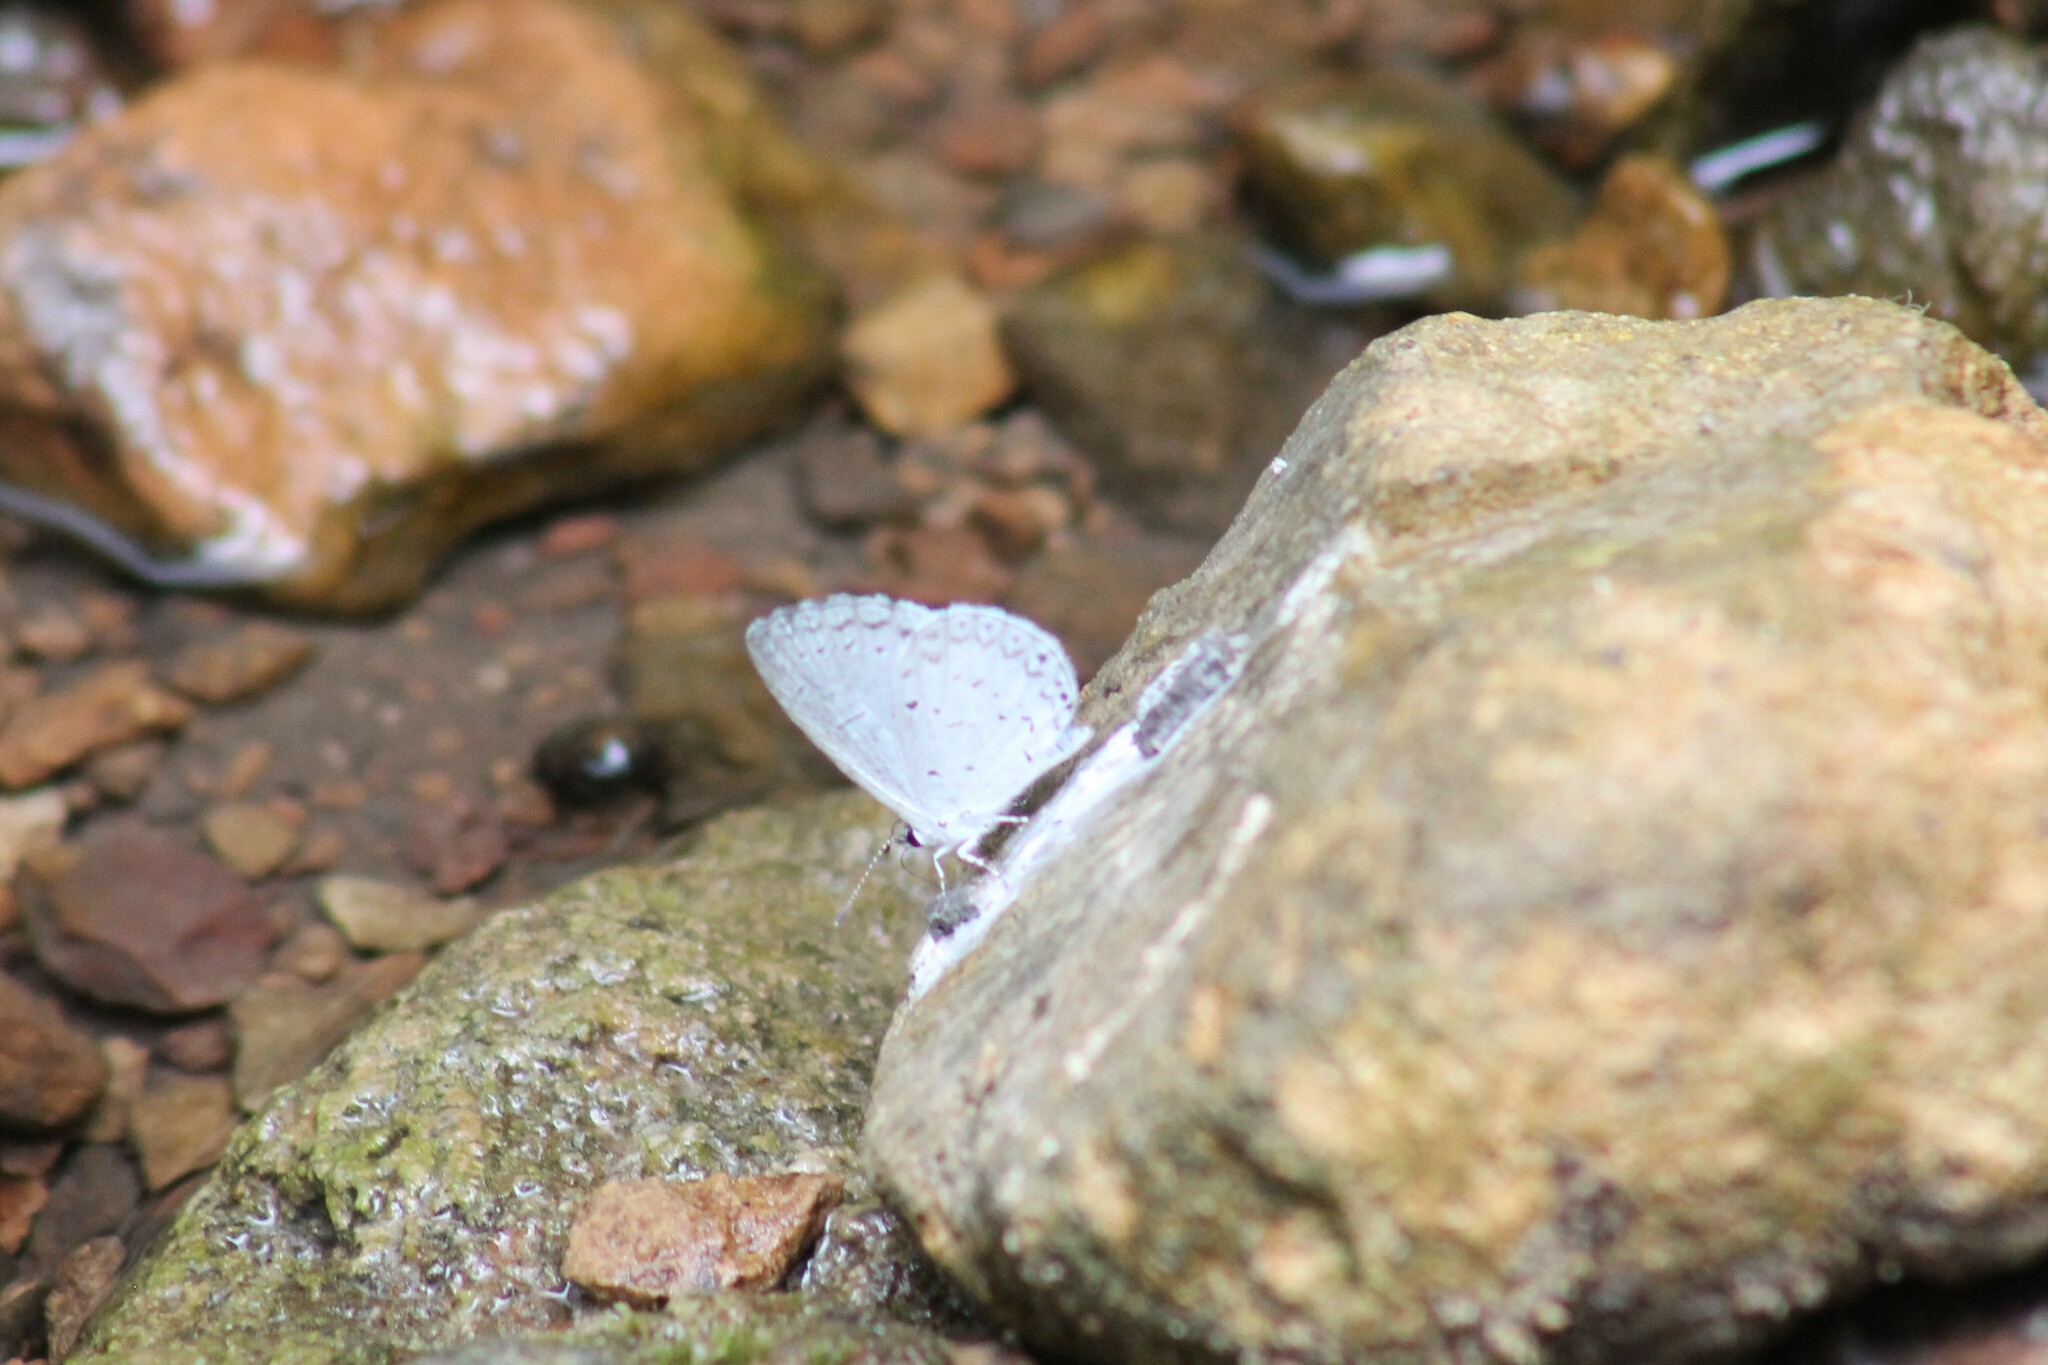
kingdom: Animalia
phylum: Arthropoda
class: Insecta
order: Lepidoptera
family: Lycaenidae
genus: Cyaniris
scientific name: Cyaniris neglecta
